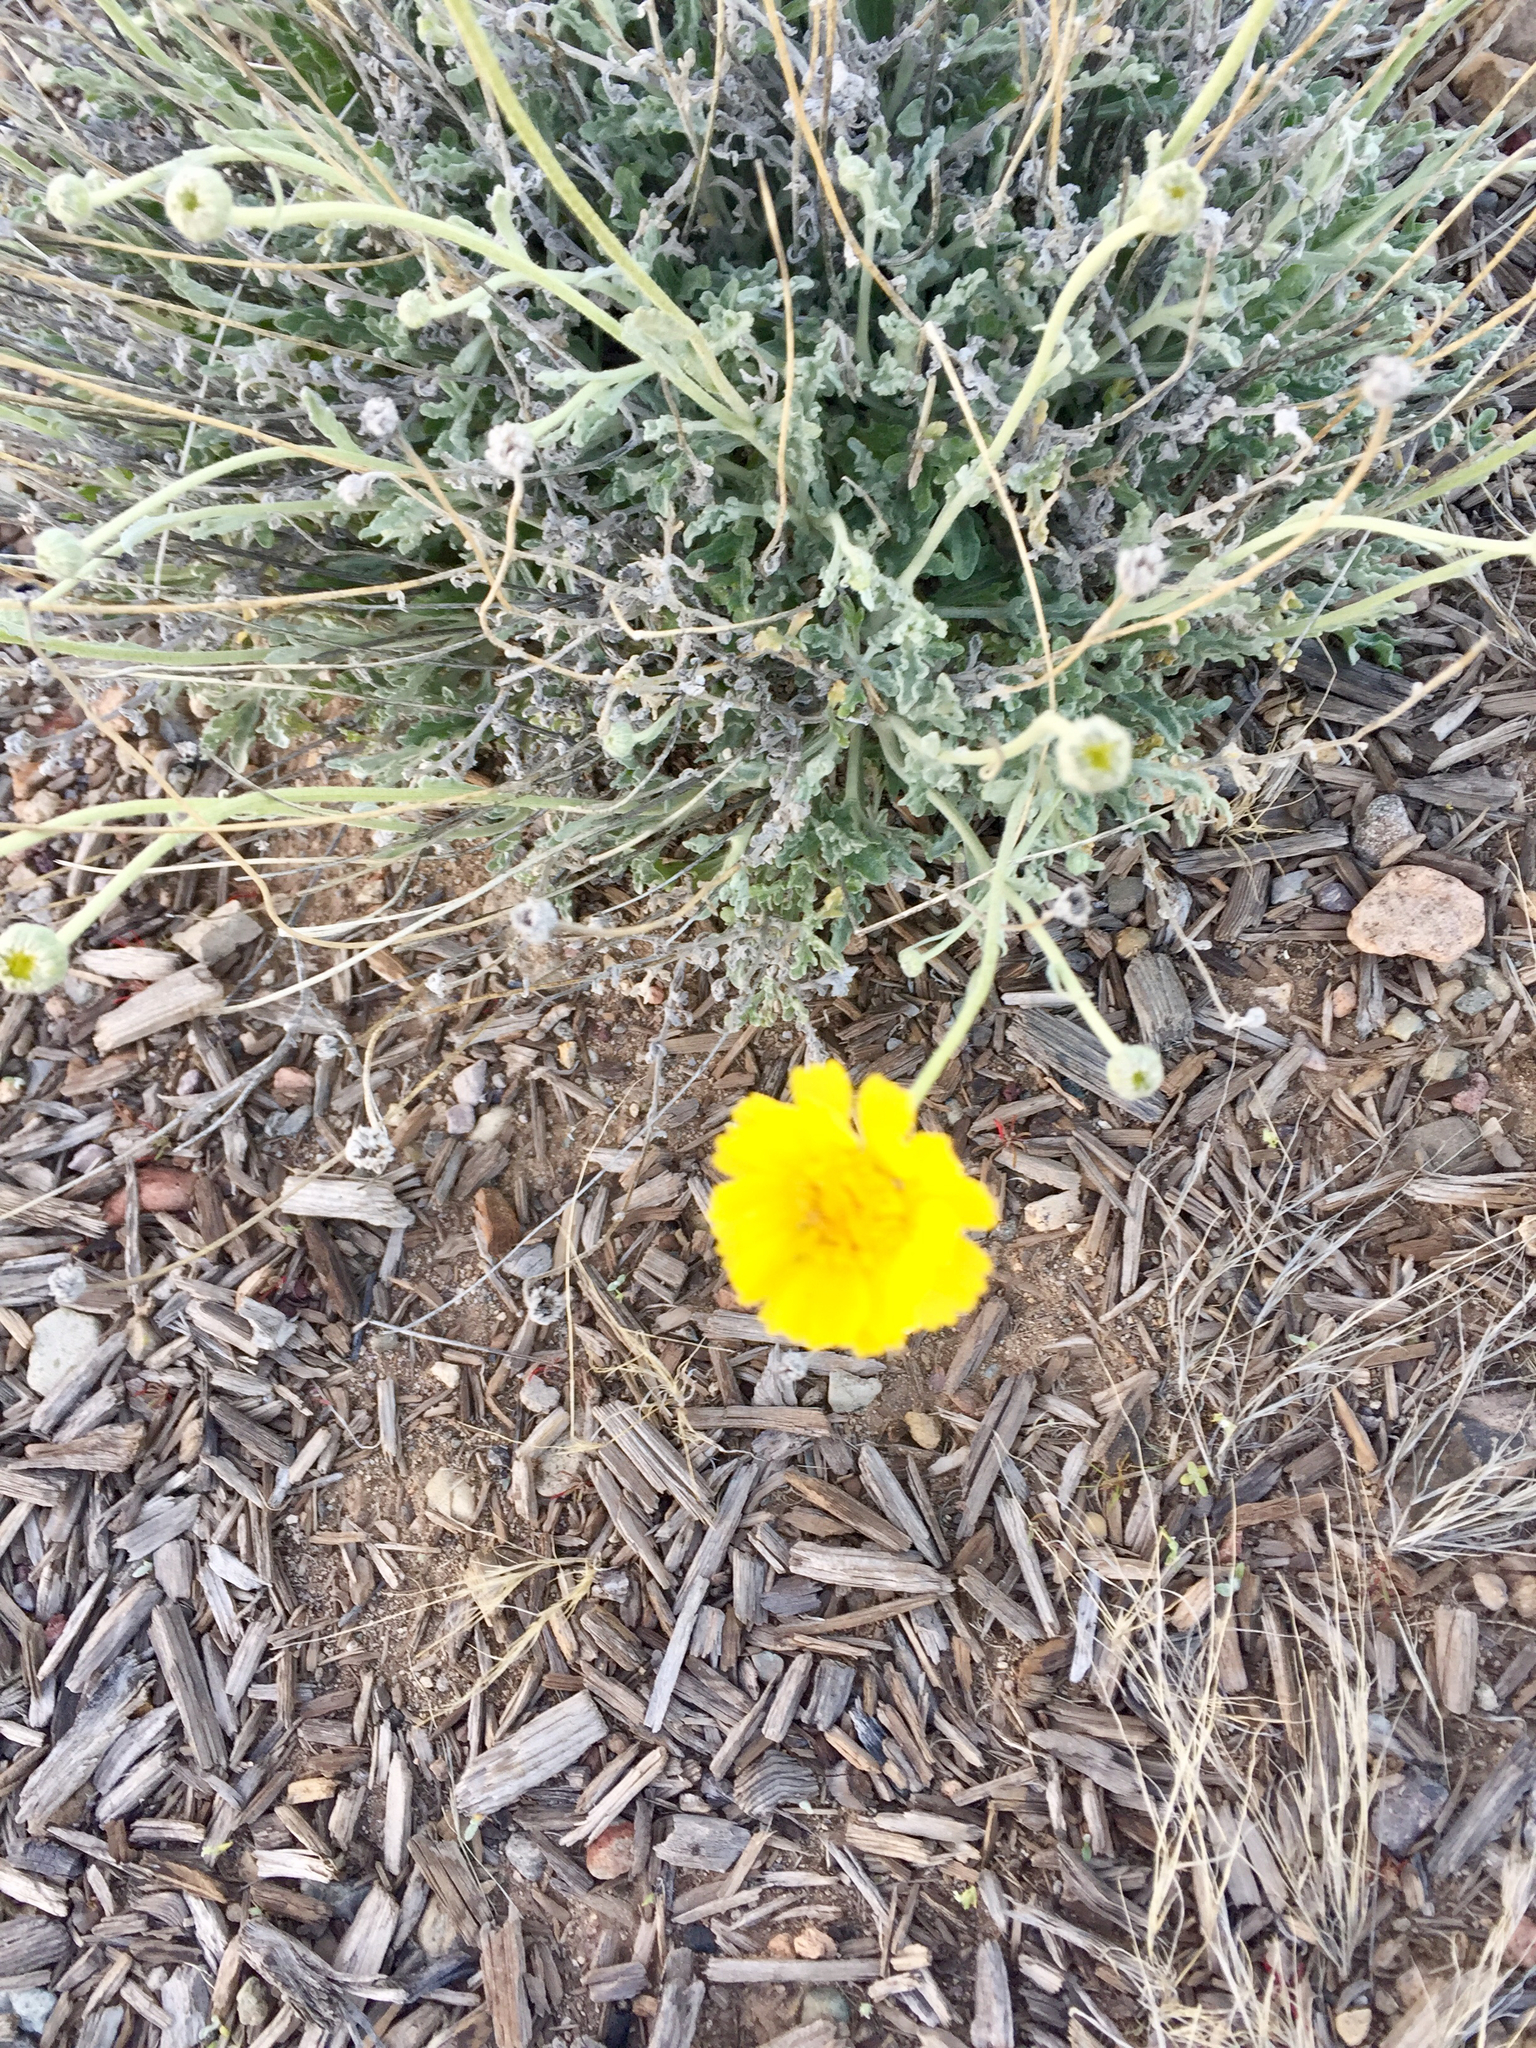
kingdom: Plantae
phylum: Tracheophyta
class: Magnoliopsida
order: Asterales
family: Asteraceae
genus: Baileya
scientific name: Baileya multiradiata
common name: Desert-marigold
